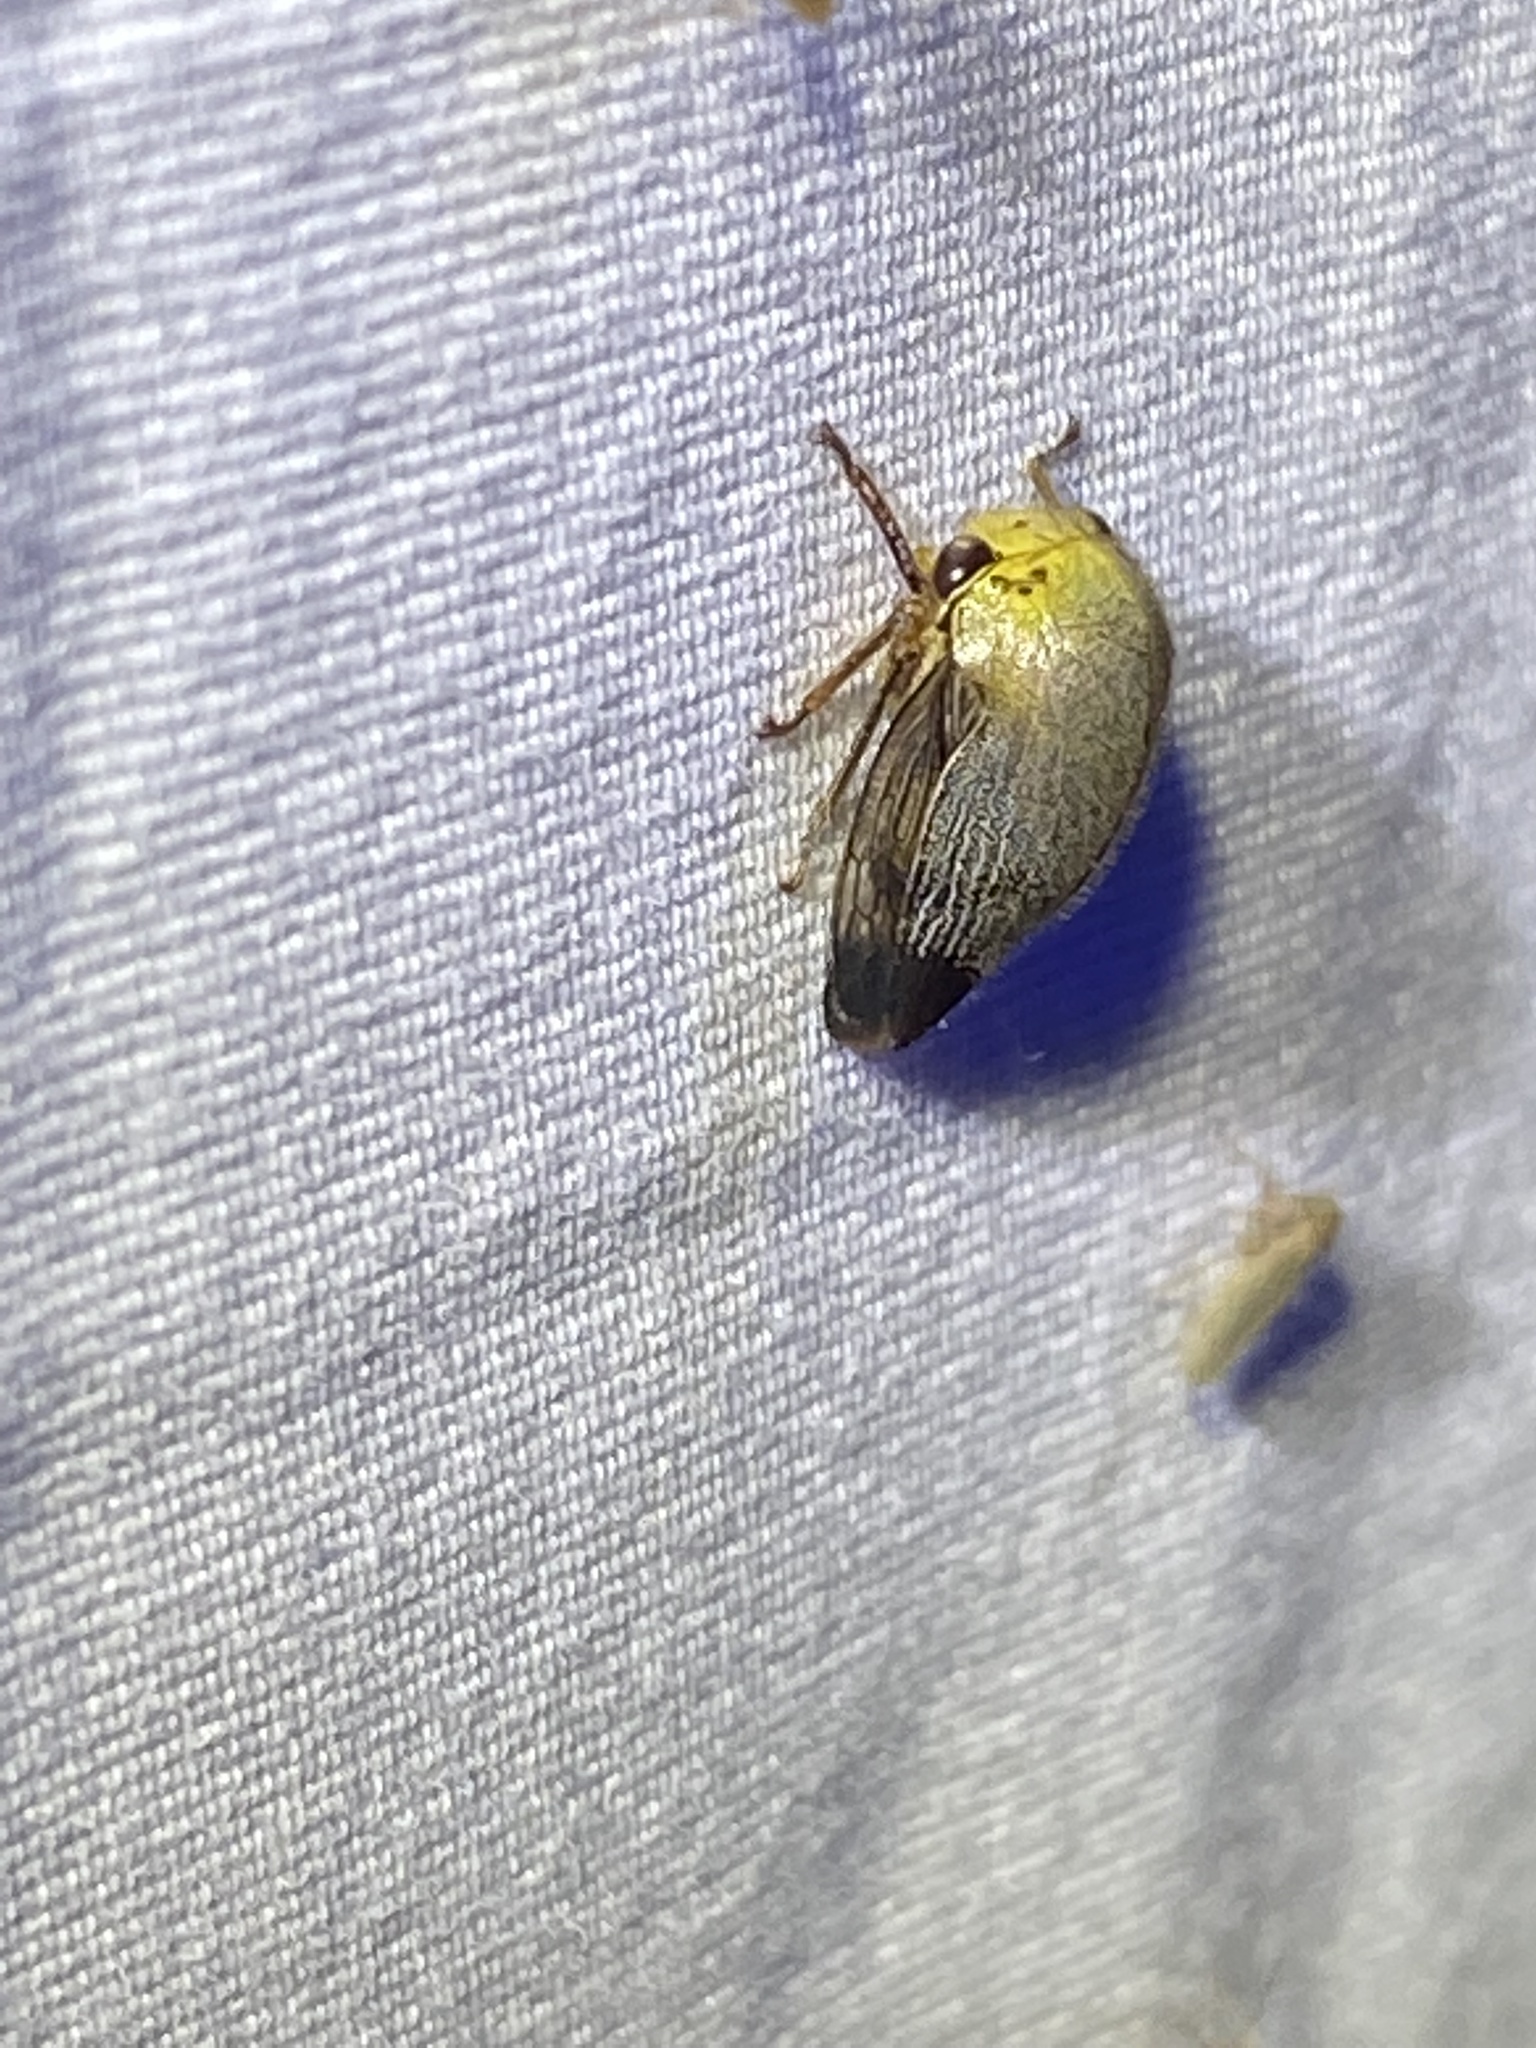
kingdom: Animalia
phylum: Arthropoda
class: Insecta
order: Hemiptera
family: Membracidae
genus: Carynota
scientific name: Carynota mera
